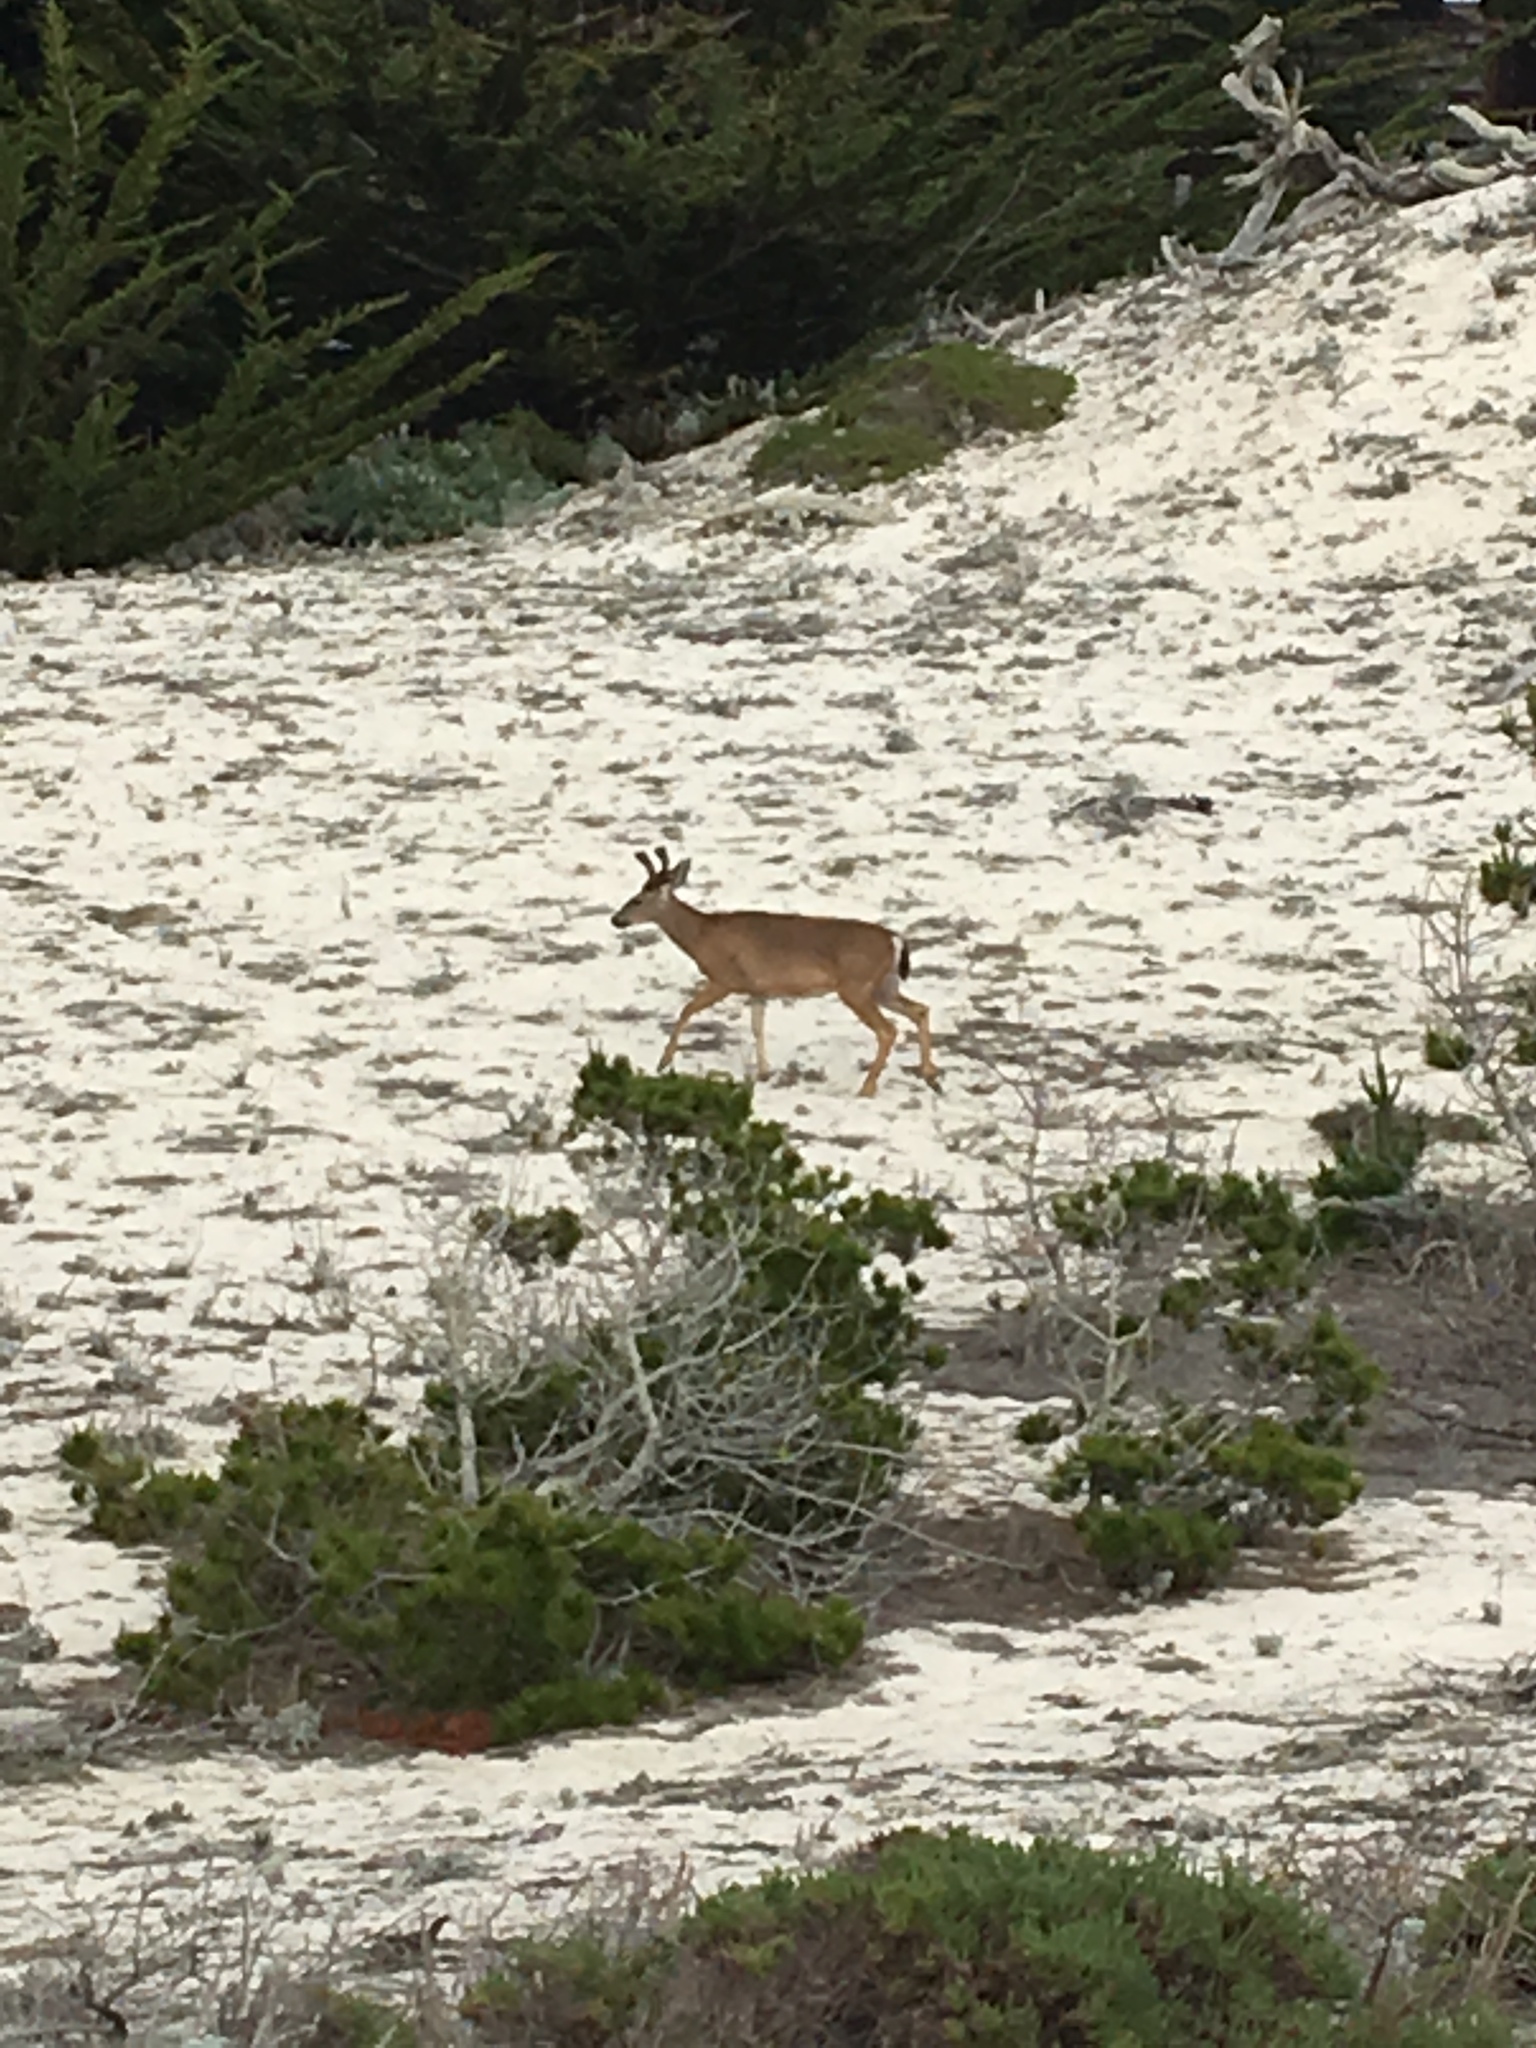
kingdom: Animalia
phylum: Chordata
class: Mammalia
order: Artiodactyla
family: Cervidae
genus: Odocoileus
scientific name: Odocoileus hemionus
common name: Mule deer
